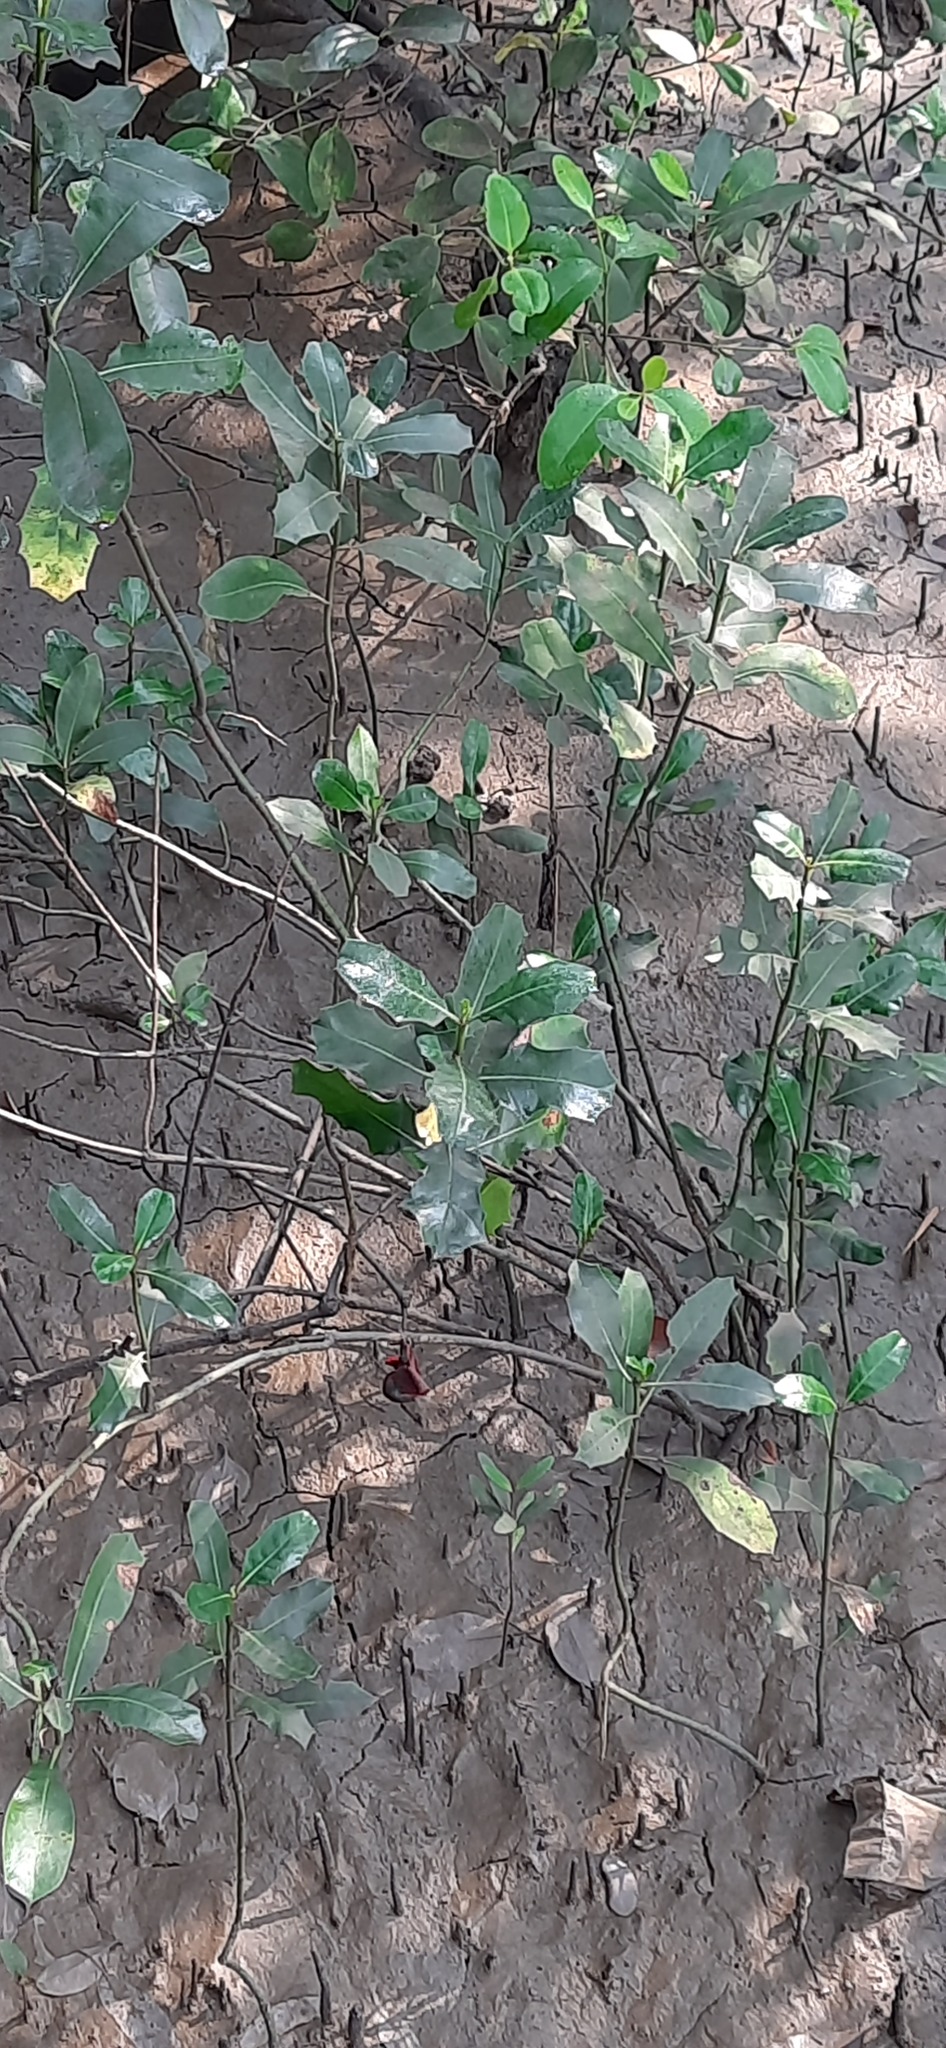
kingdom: Plantae
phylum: Tracheophyta
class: Magnoliopsida
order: Lamiales
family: Acanthaceae
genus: Acanthus
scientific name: Acanthus ilicifolius
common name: Holy mangrove
